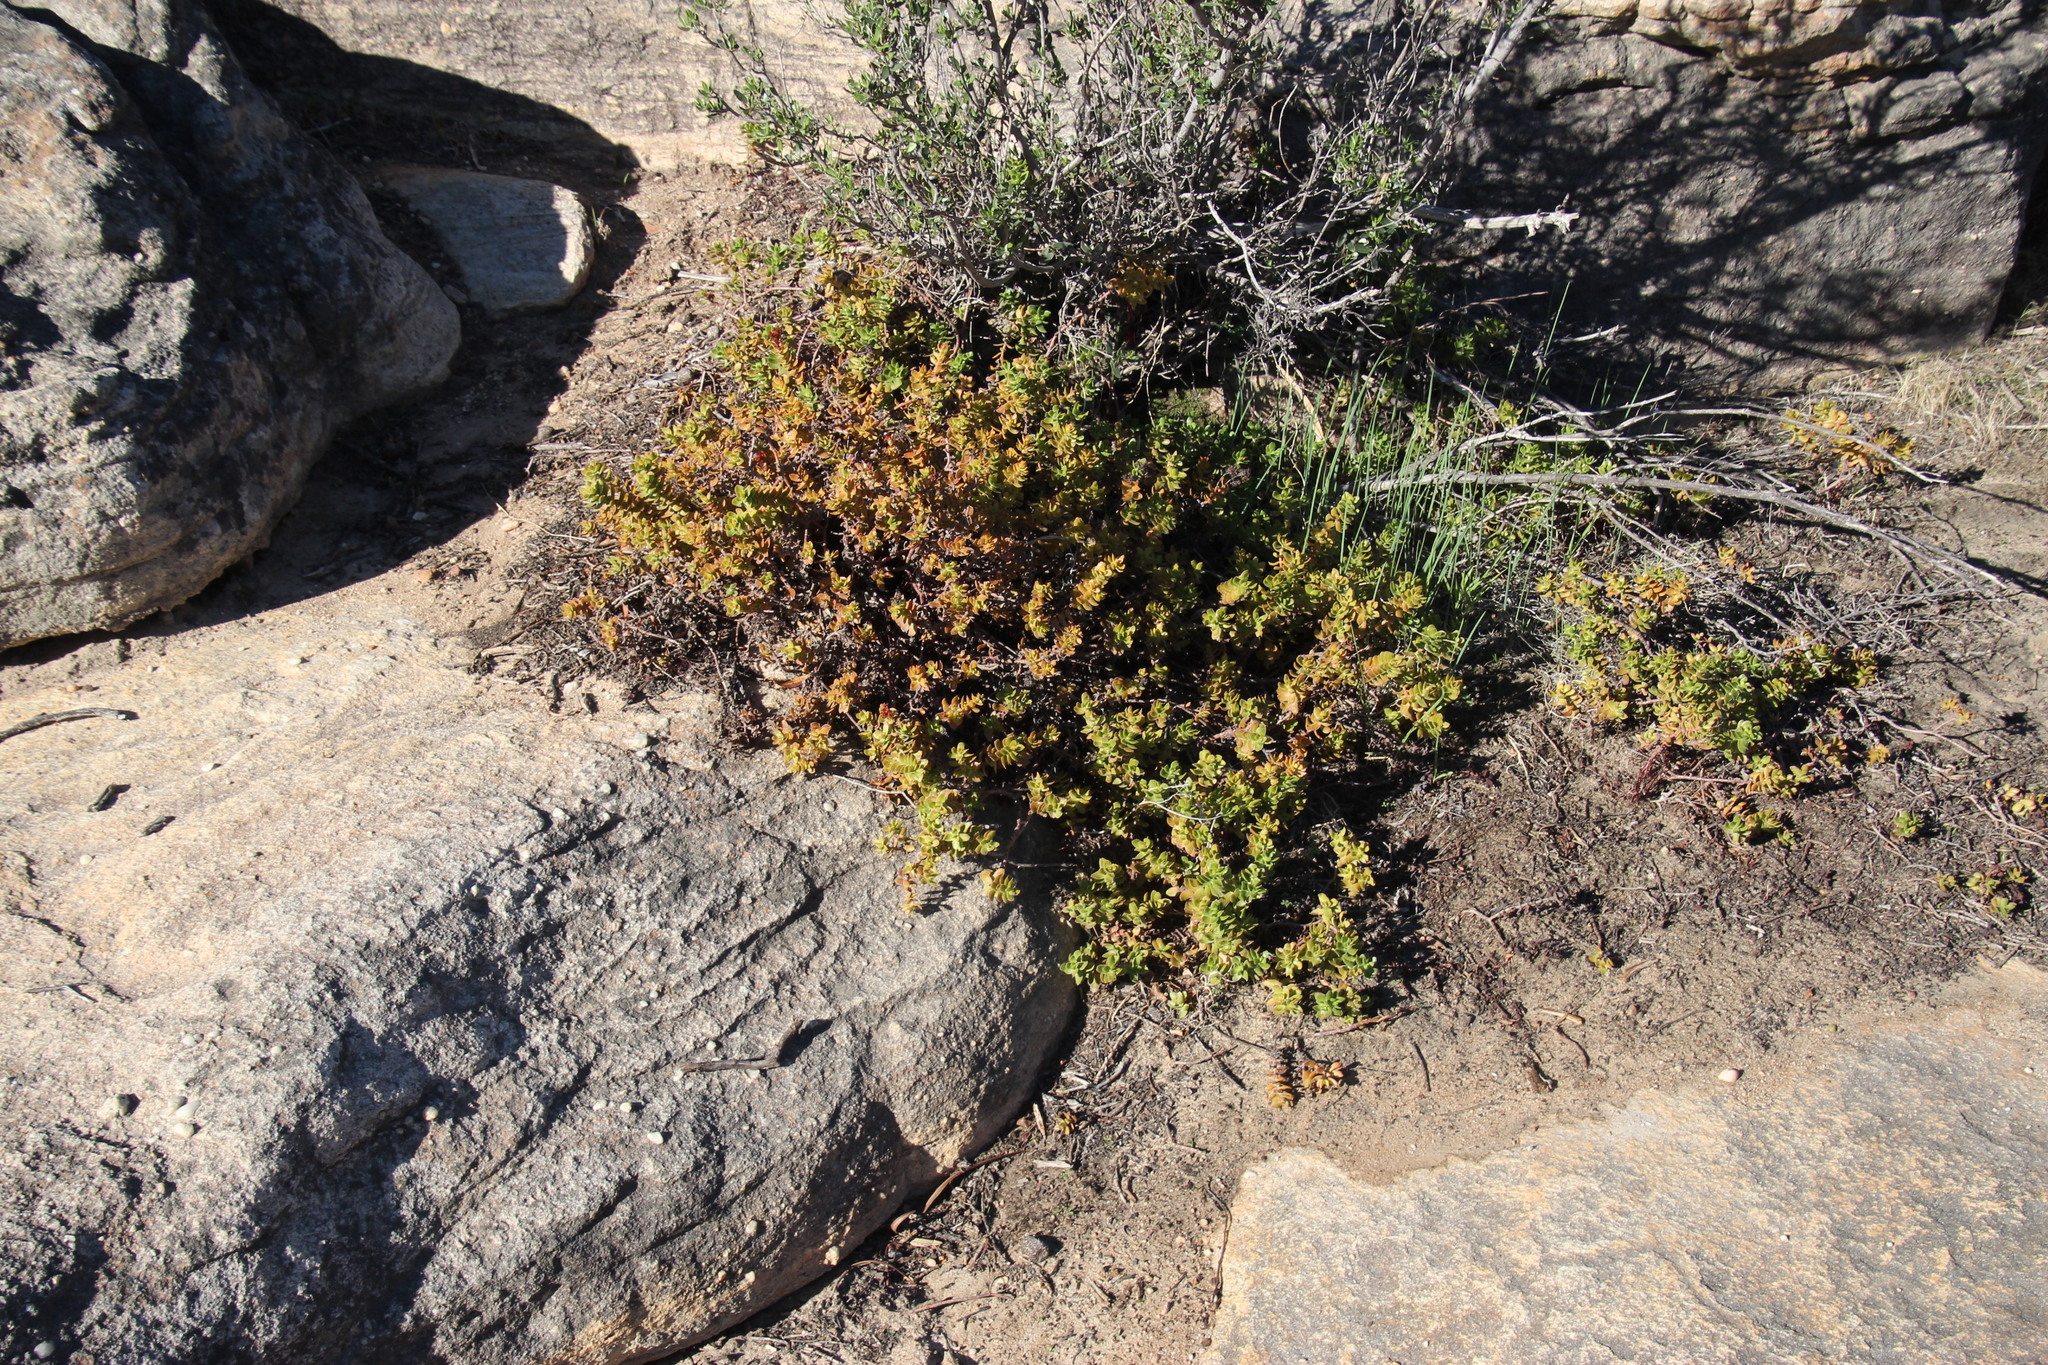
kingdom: Plantae
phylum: Tracheophyta
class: Magnoliopsida
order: Saxifragales
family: Crassulaceae
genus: Crassula
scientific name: Crassula undulata
